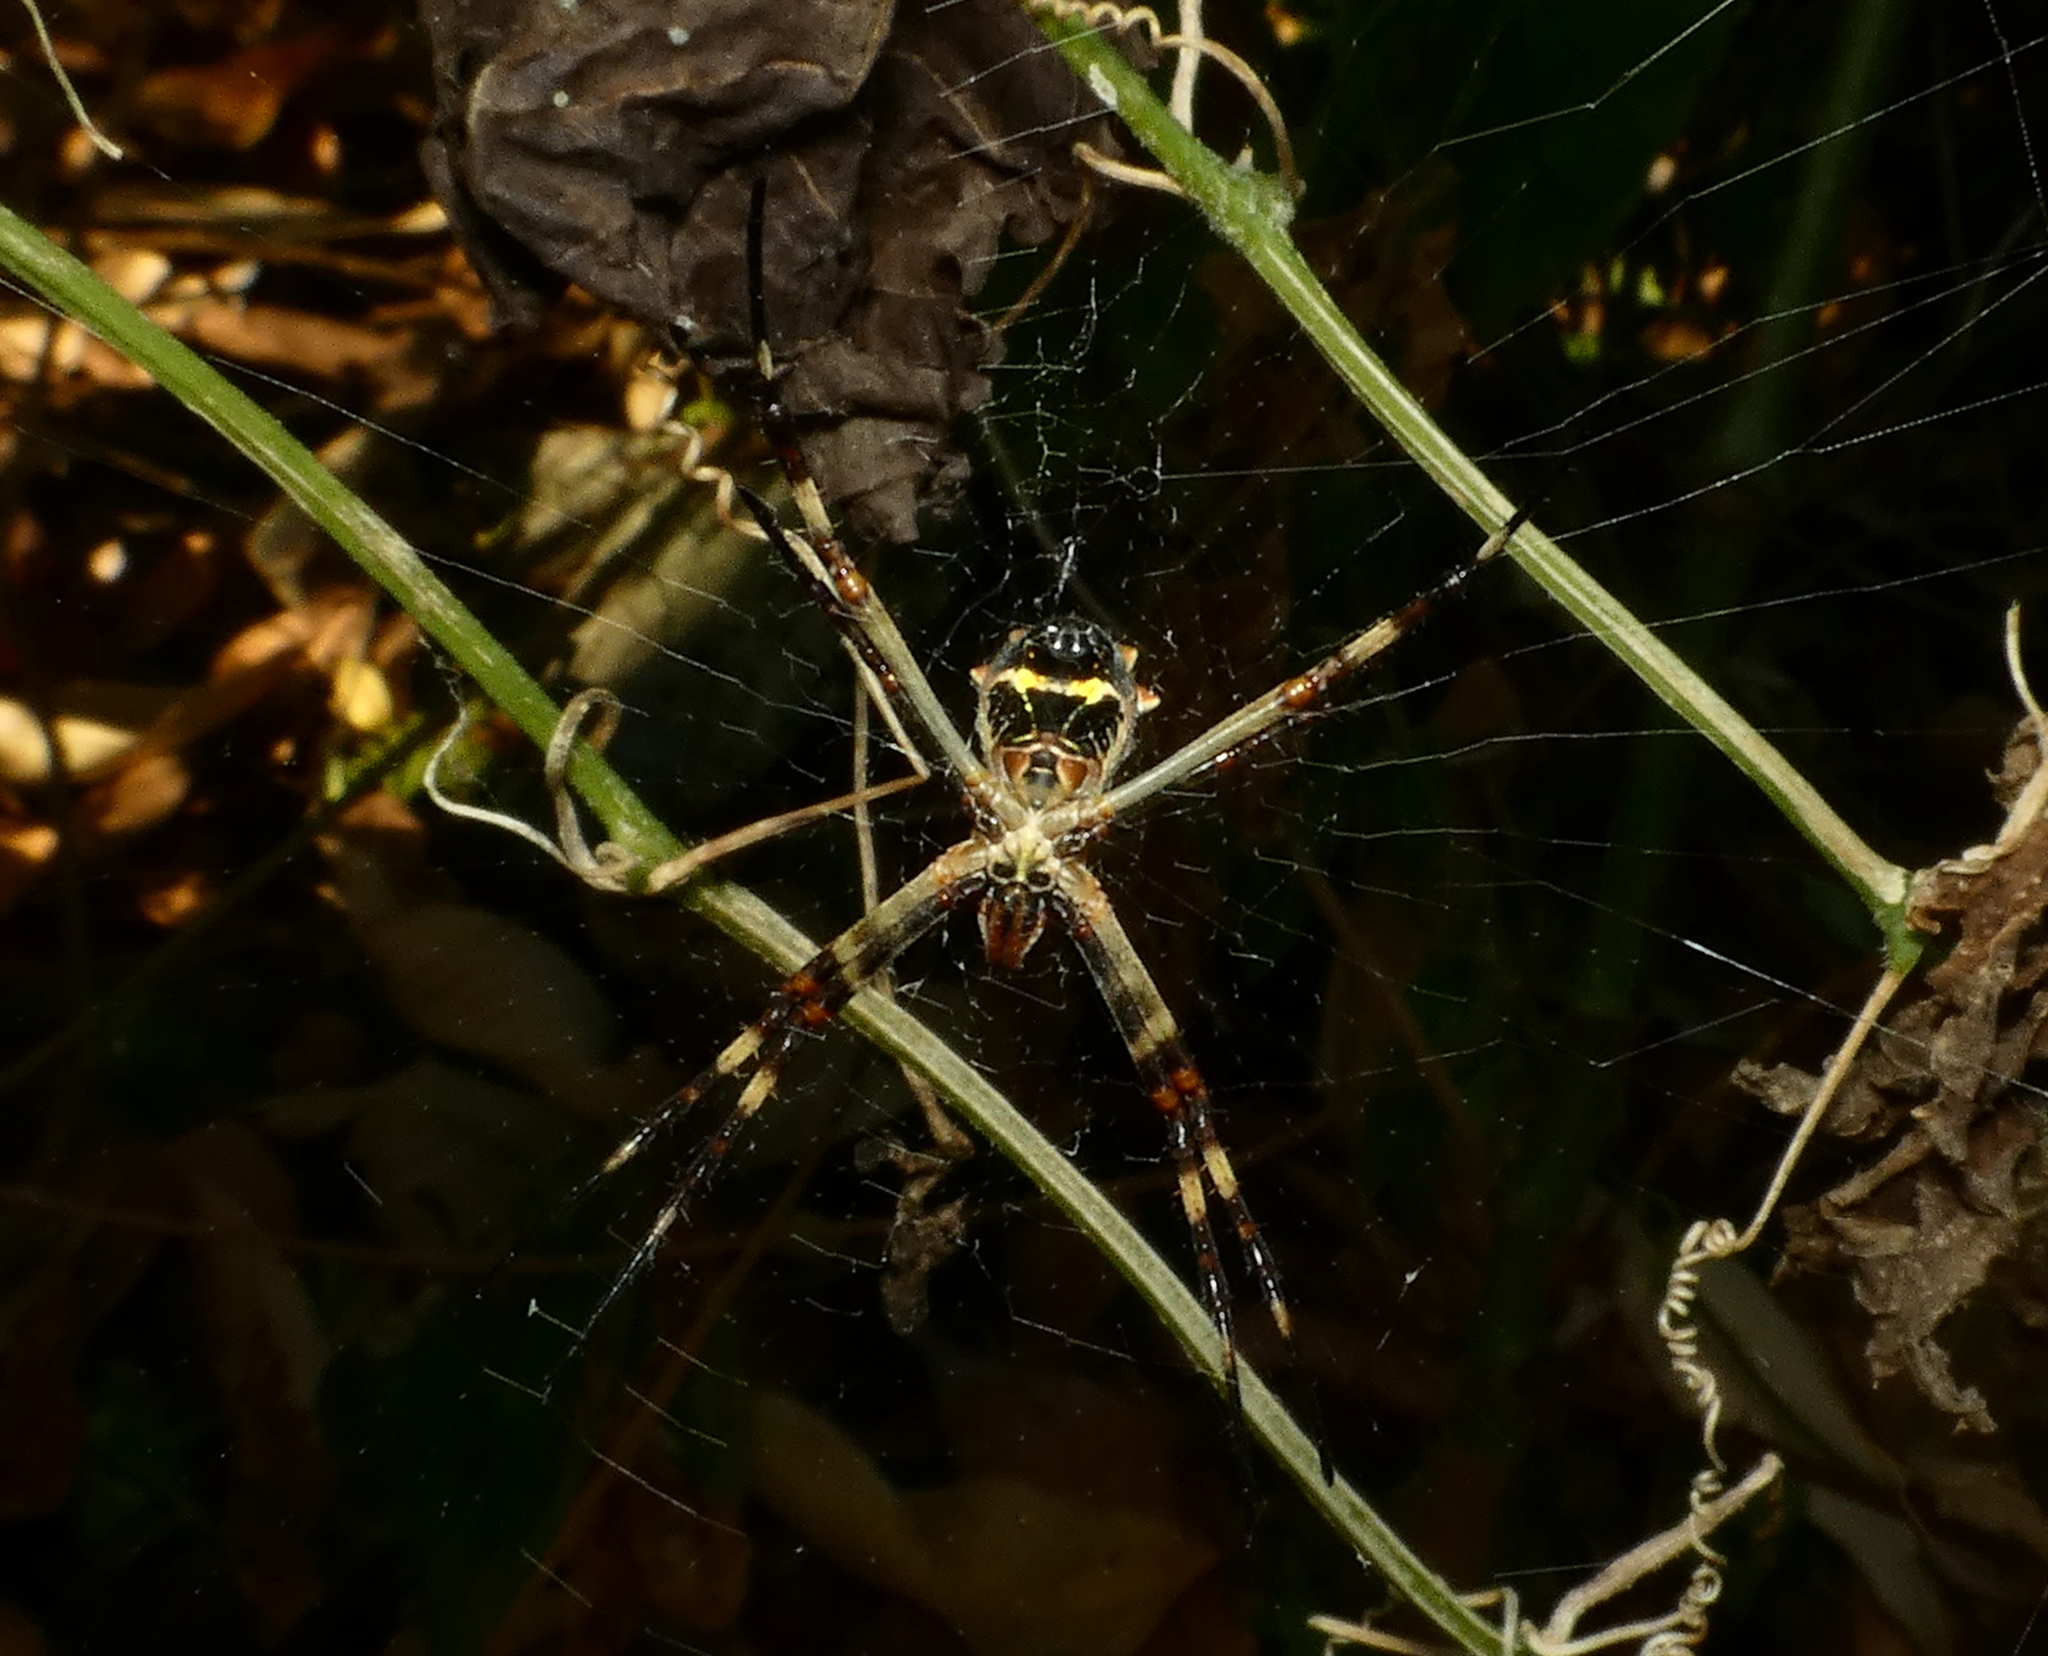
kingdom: Animalia
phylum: Arthropoda
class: Arachnida
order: Araneae
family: Araneidae
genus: Argiope
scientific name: Argiope argentata
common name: Orb weavers
